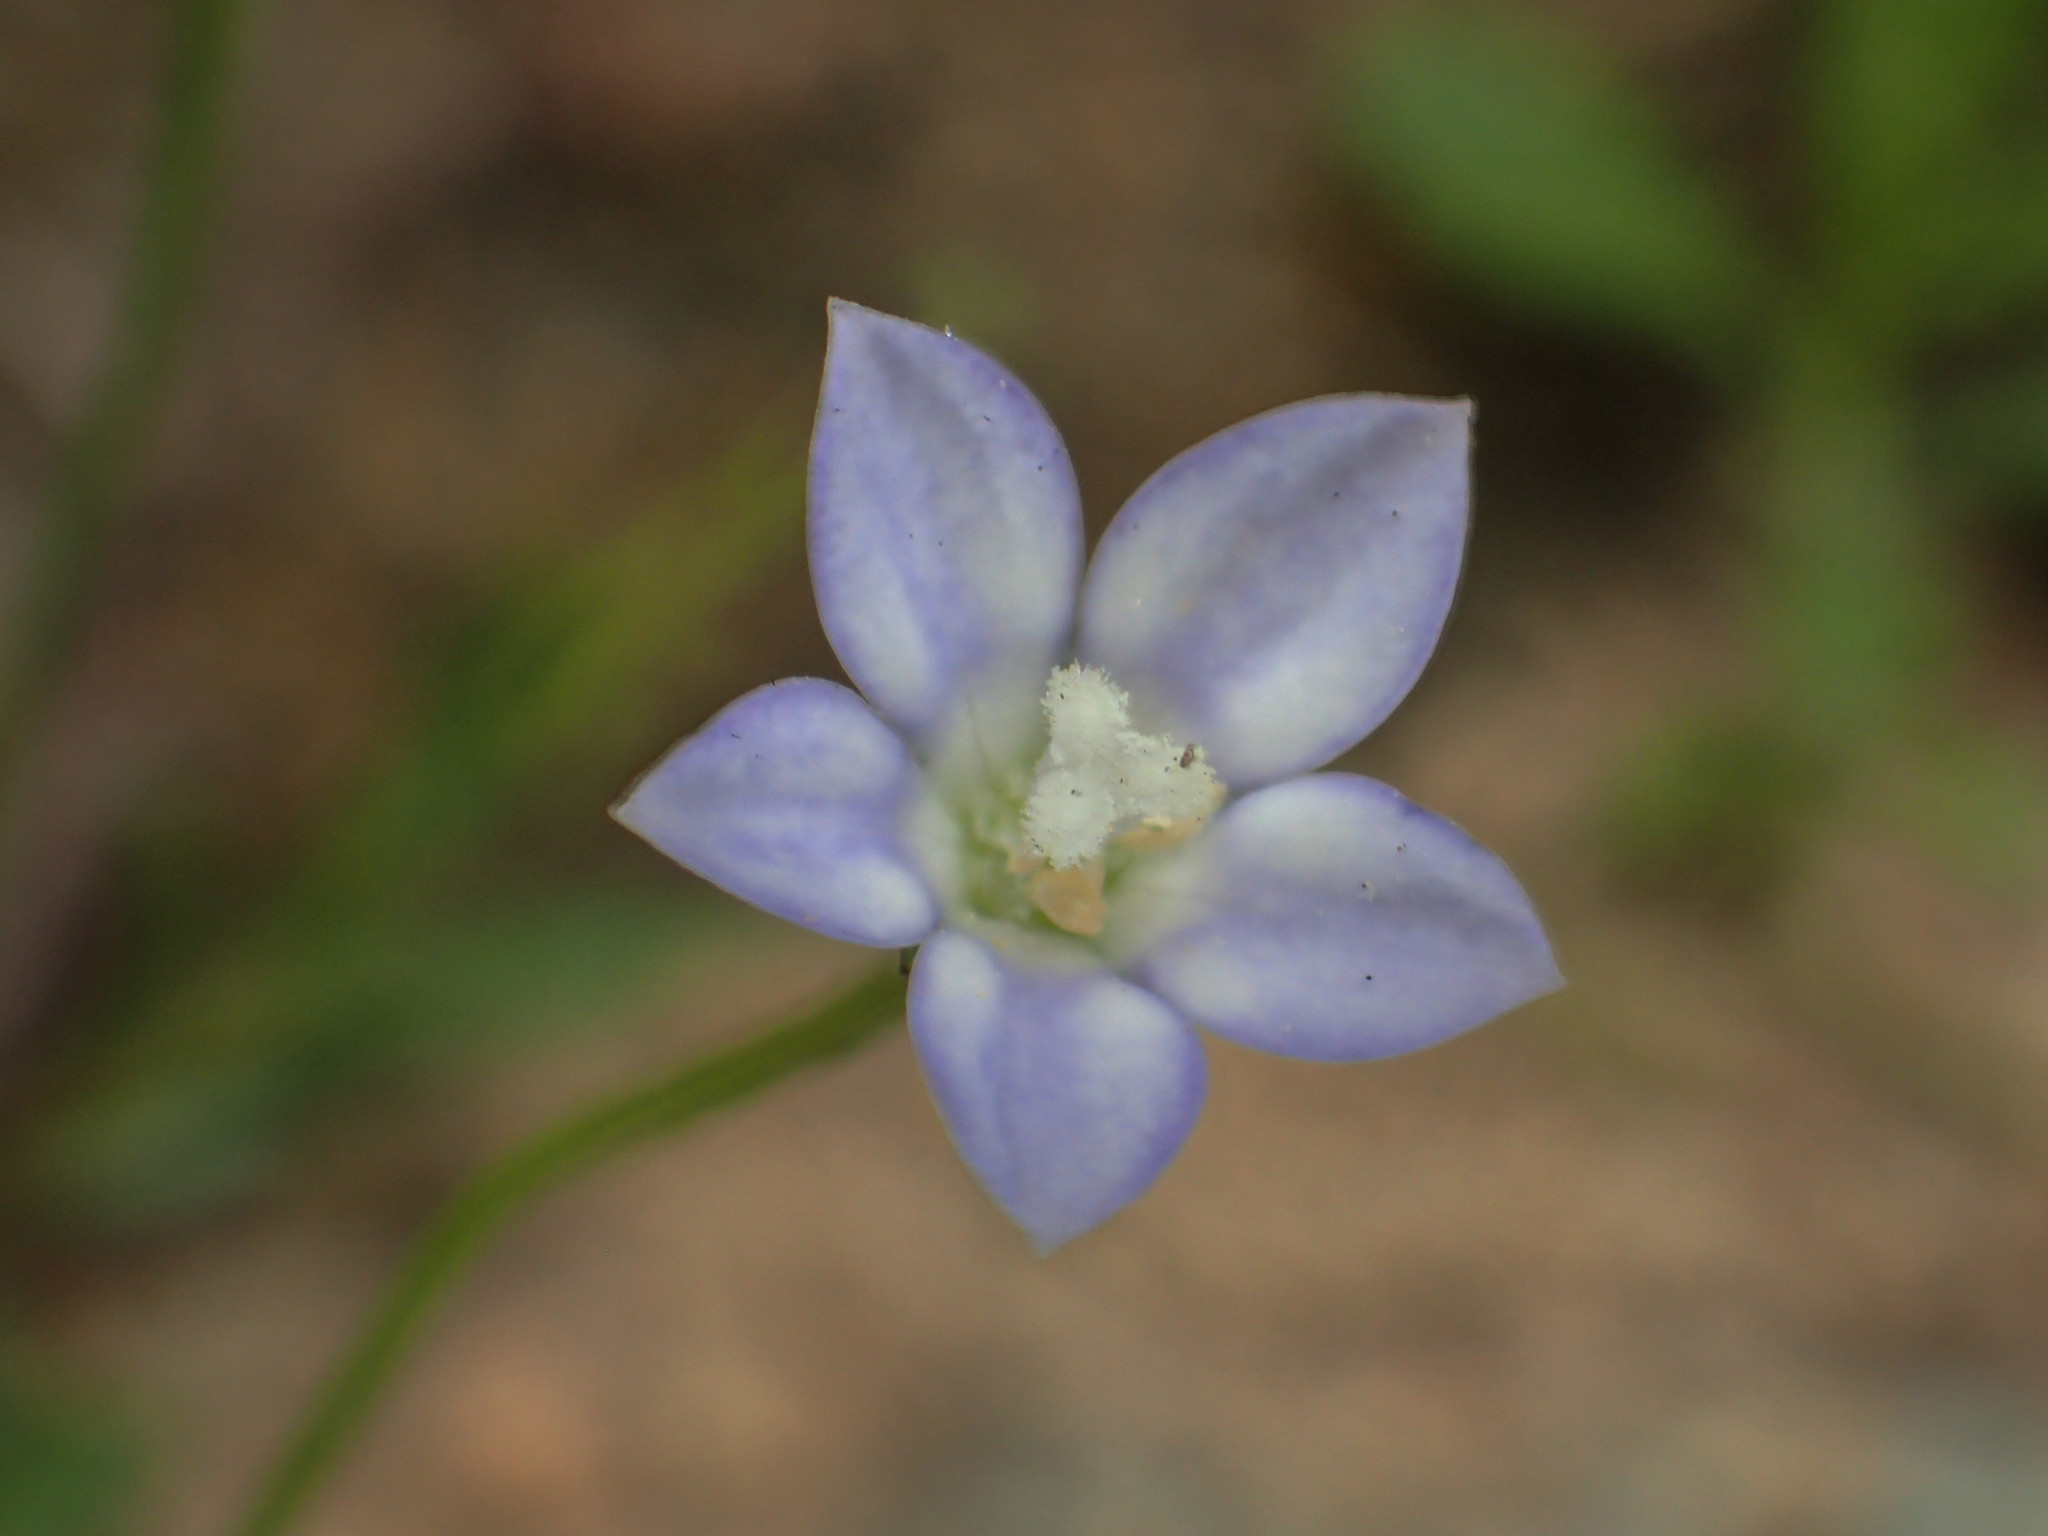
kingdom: Plantae
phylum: Tracheophyta
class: Magnoliopsida
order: Asterales
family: Campanulaceae
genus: Wahlenbergia
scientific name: Wahlenbergia marginata
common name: Southern rockbell
